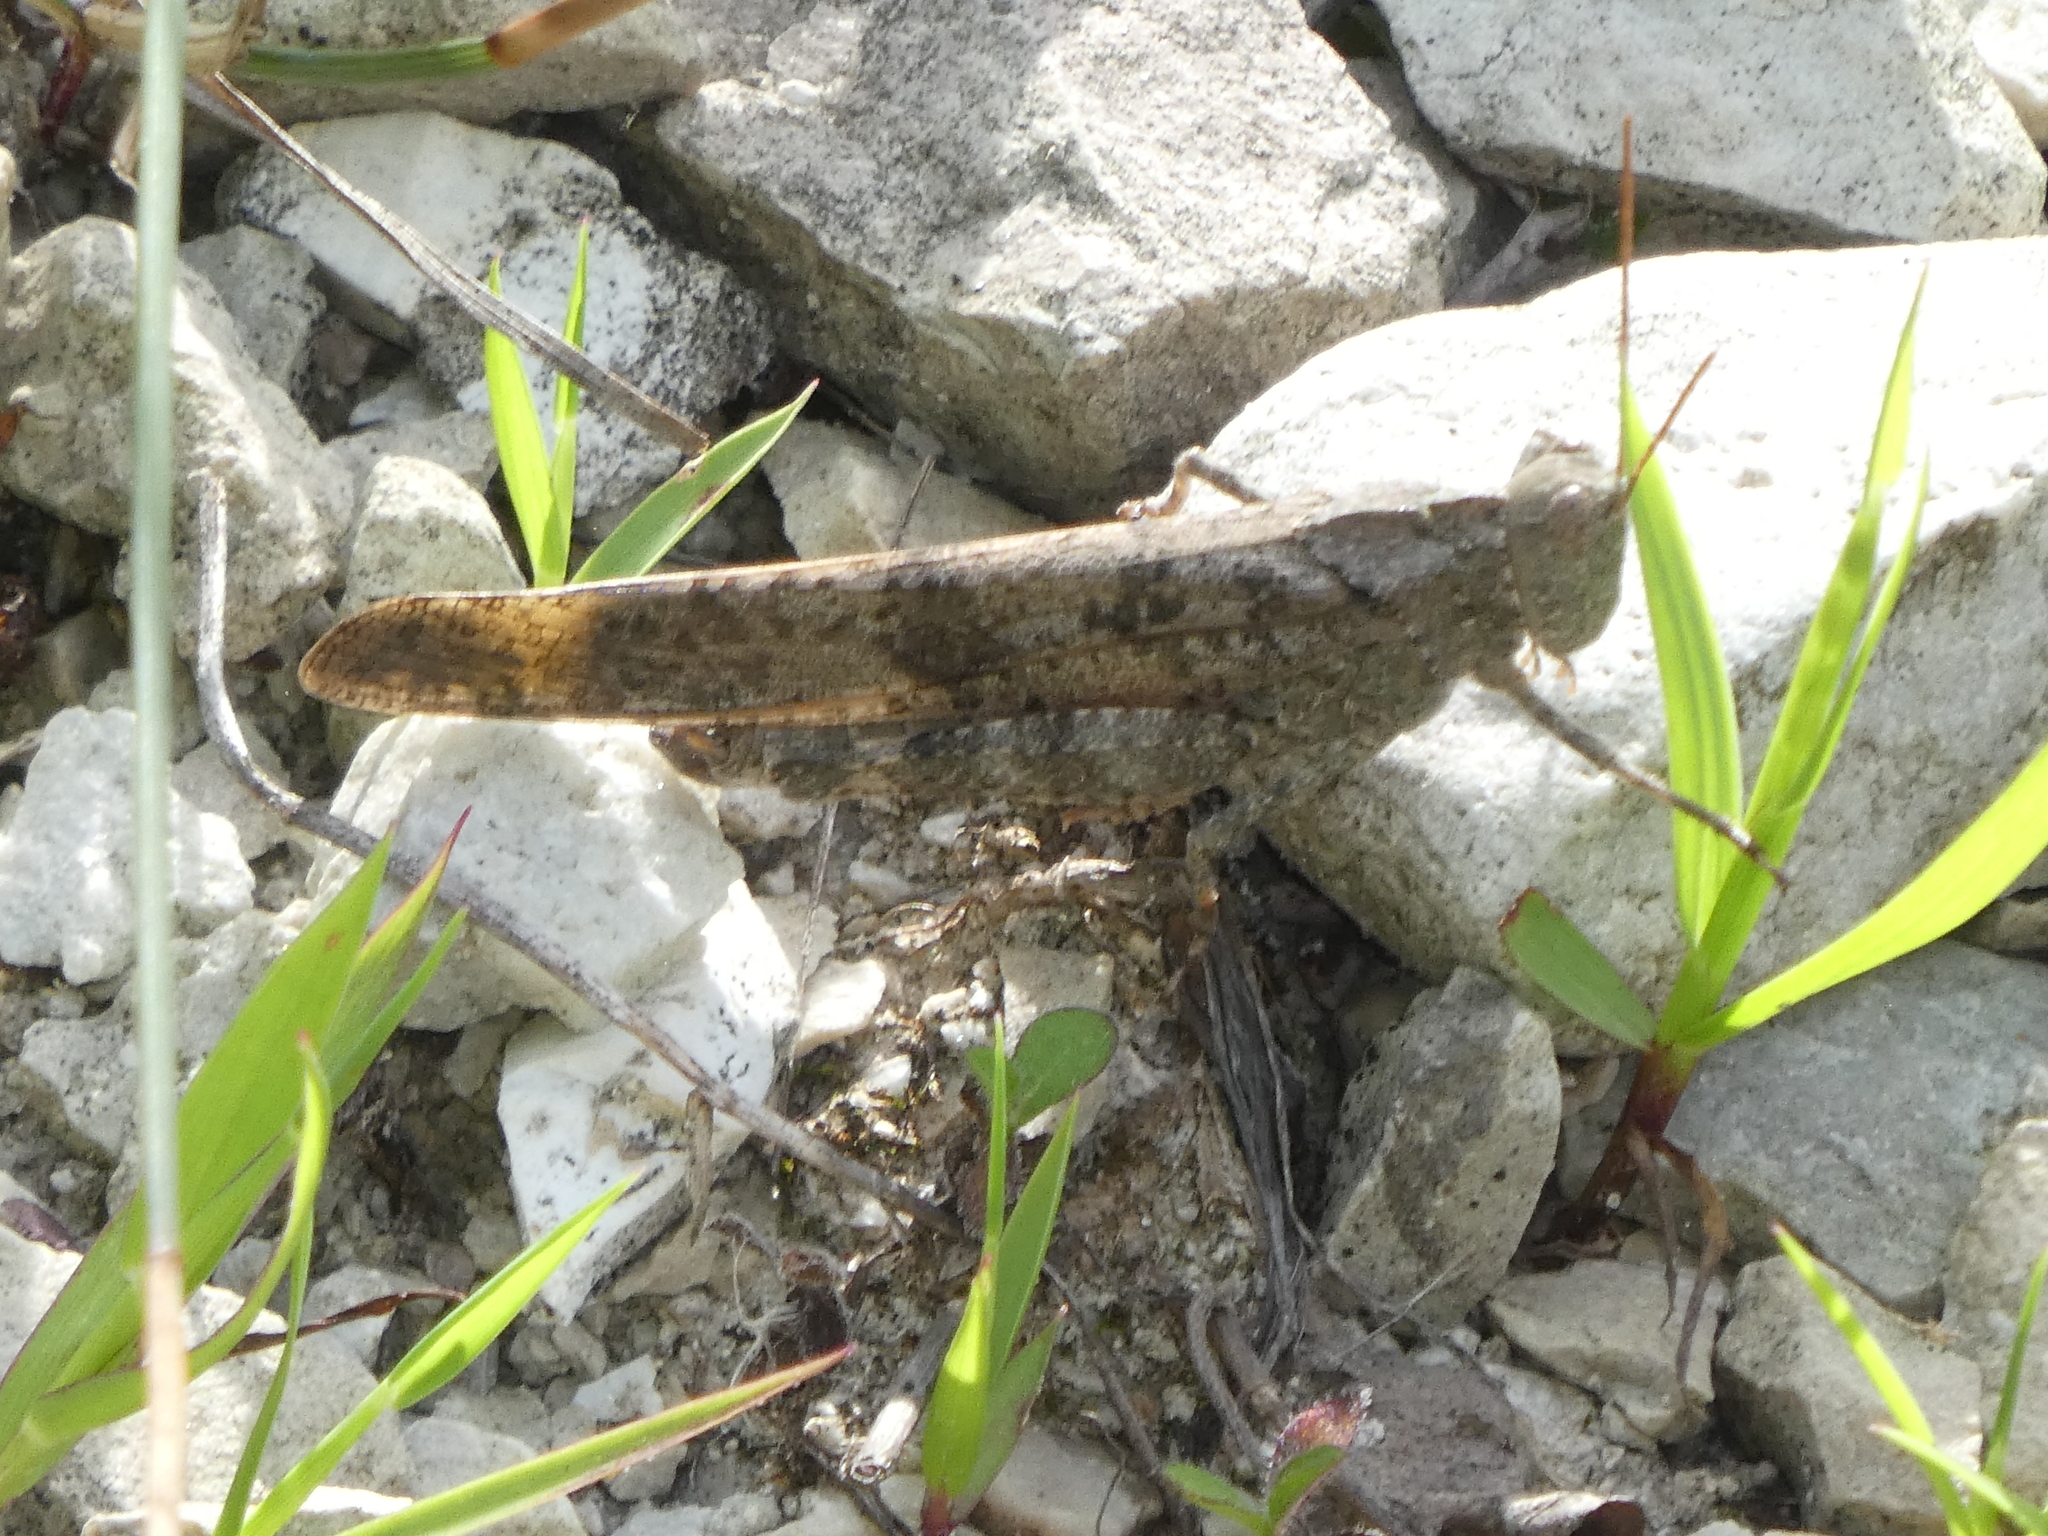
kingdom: Animalia
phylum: Arthropoda
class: Insecta
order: Orthoptera
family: Acrididae
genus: Dissosteira
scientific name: Dissosteira carolina
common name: Carolina grasshopper
